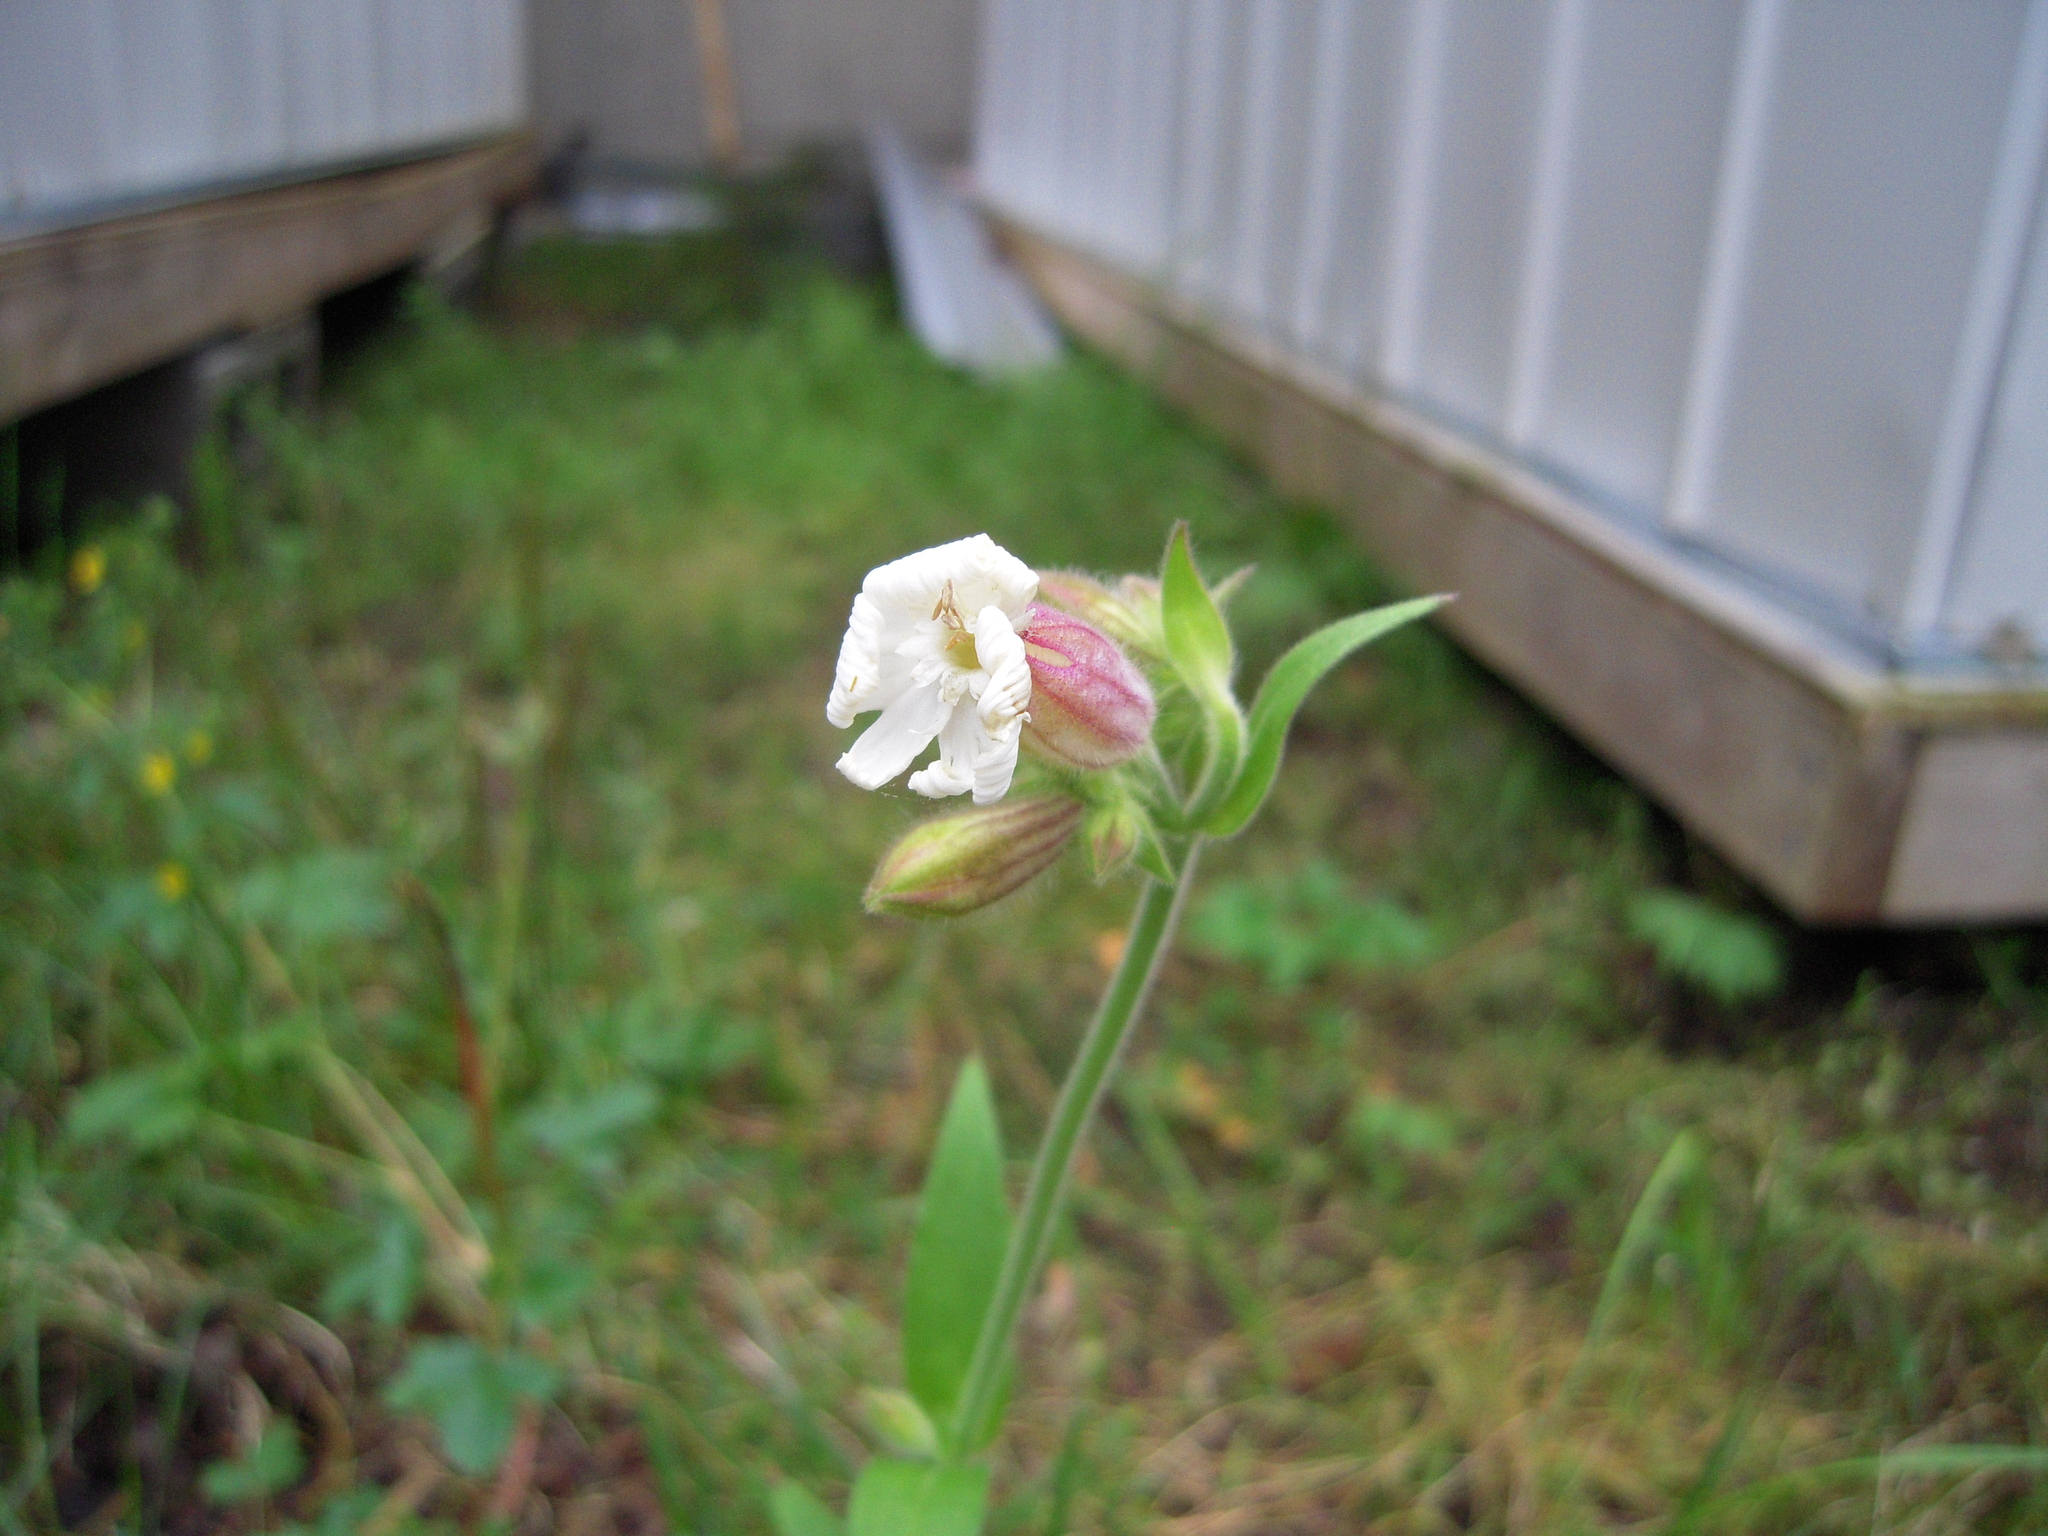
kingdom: Plantae
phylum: Tracheophyta
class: Magnoliopsida
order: Caryophyllales
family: Caryophyllaceae
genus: Silene
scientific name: Silene latifolia
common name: White campion
